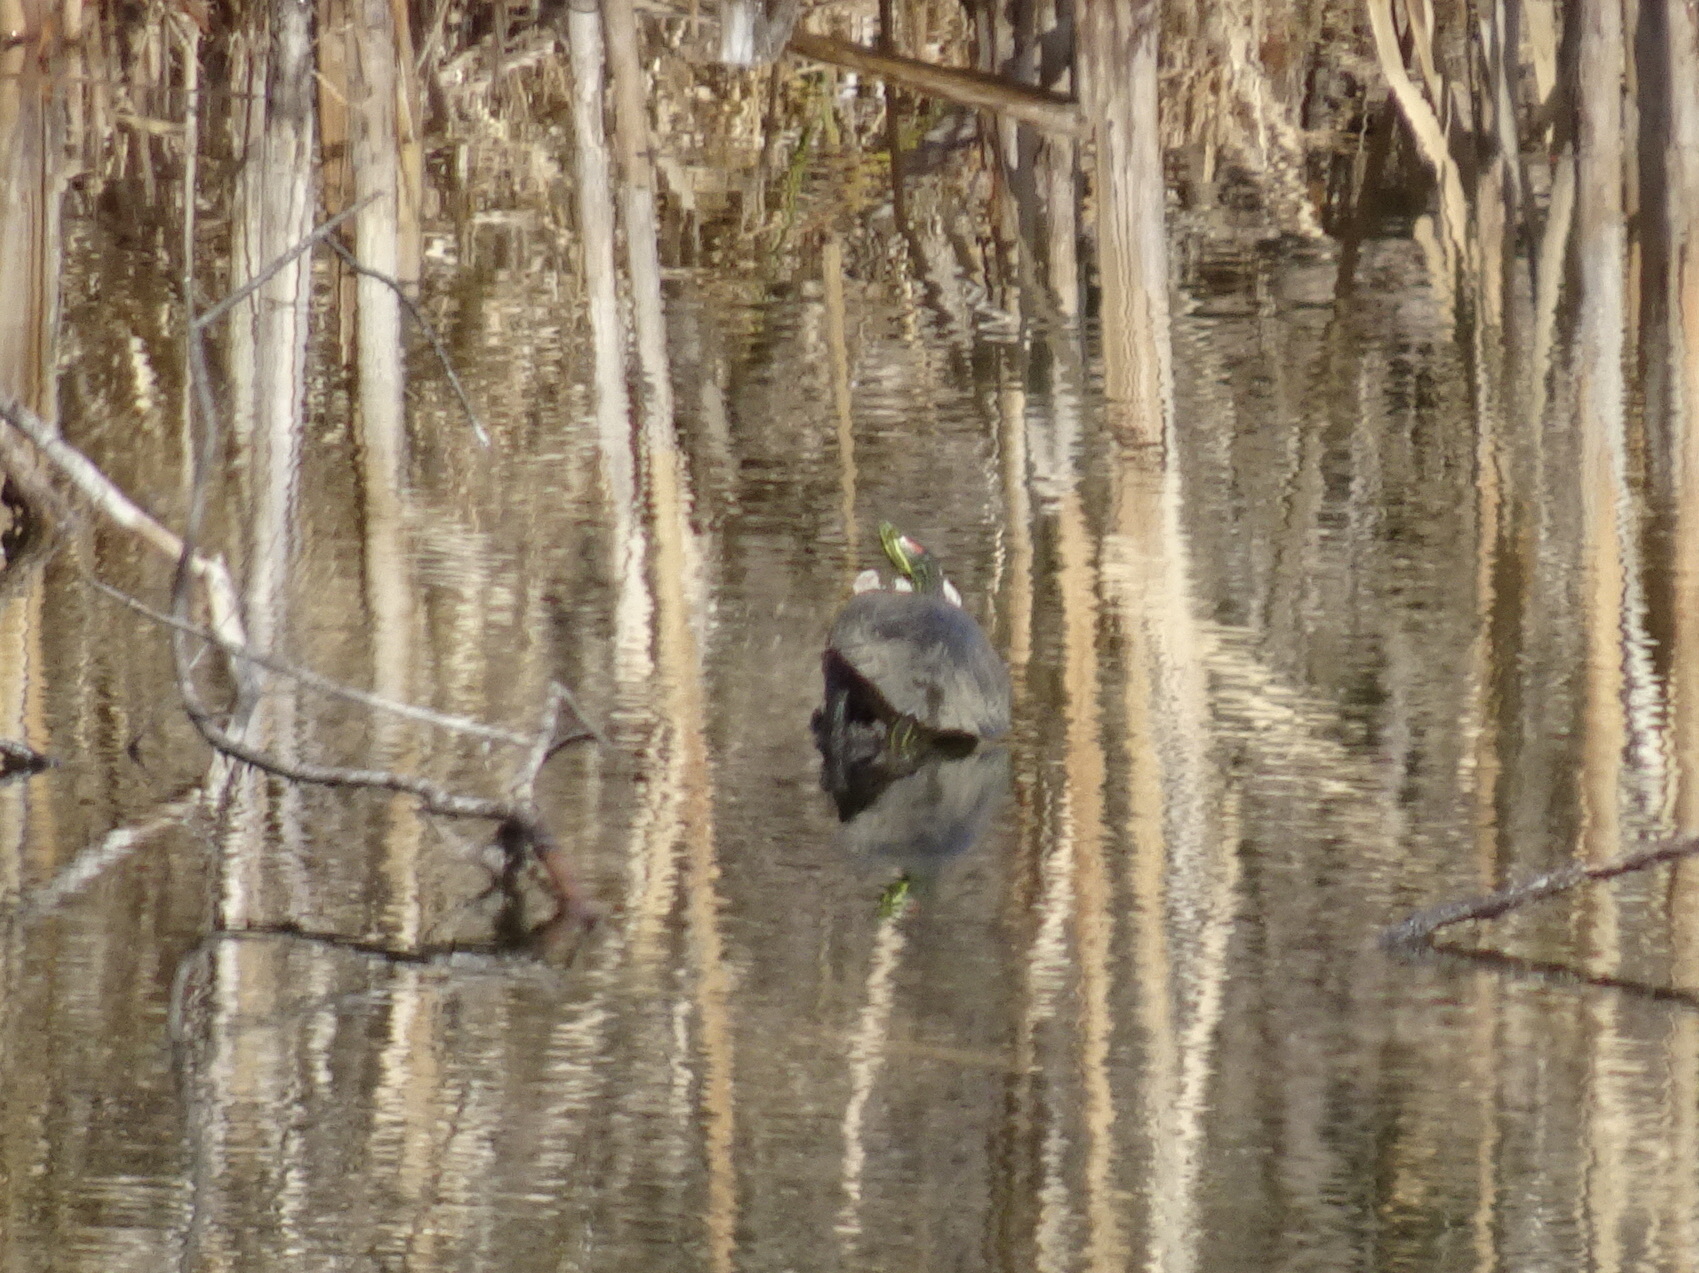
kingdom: Animalia
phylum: Chordata
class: Testudines
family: Emydidae
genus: Trachemys
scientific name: Trachemys scripta
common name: Slider
